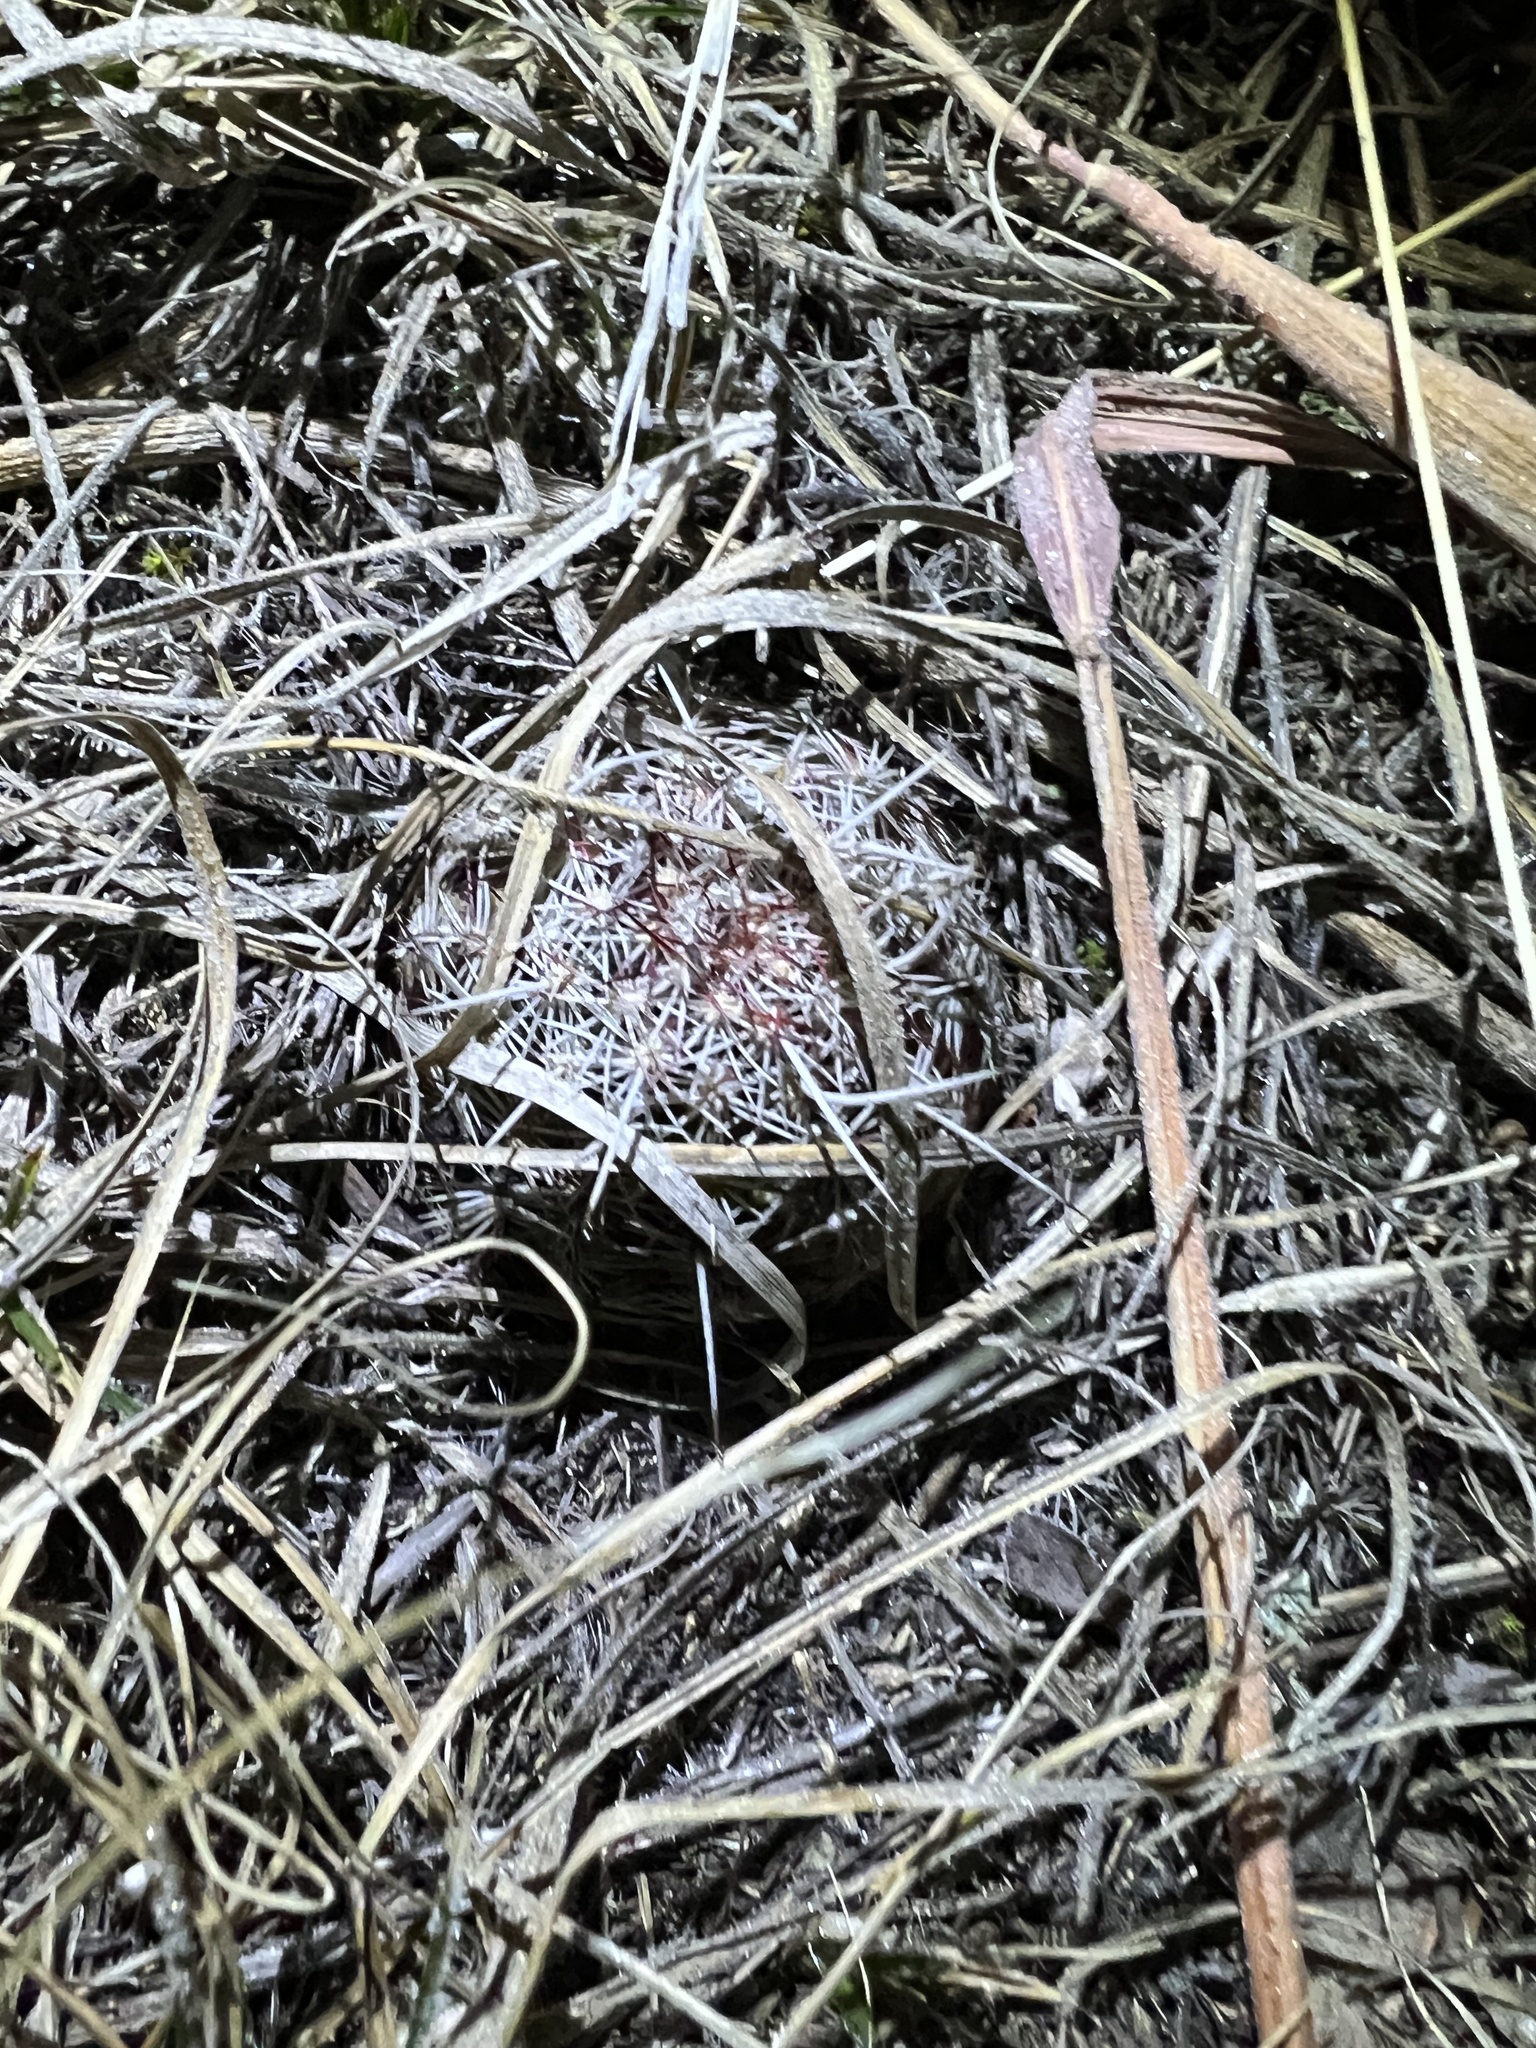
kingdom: Plantae
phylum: Tracheophyta
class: Magnoliopsida
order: Caryophyllales
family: Cactaceae
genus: Echinocereus
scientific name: Echinocereus viridiflorus
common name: Nylon hedgehog cactus
